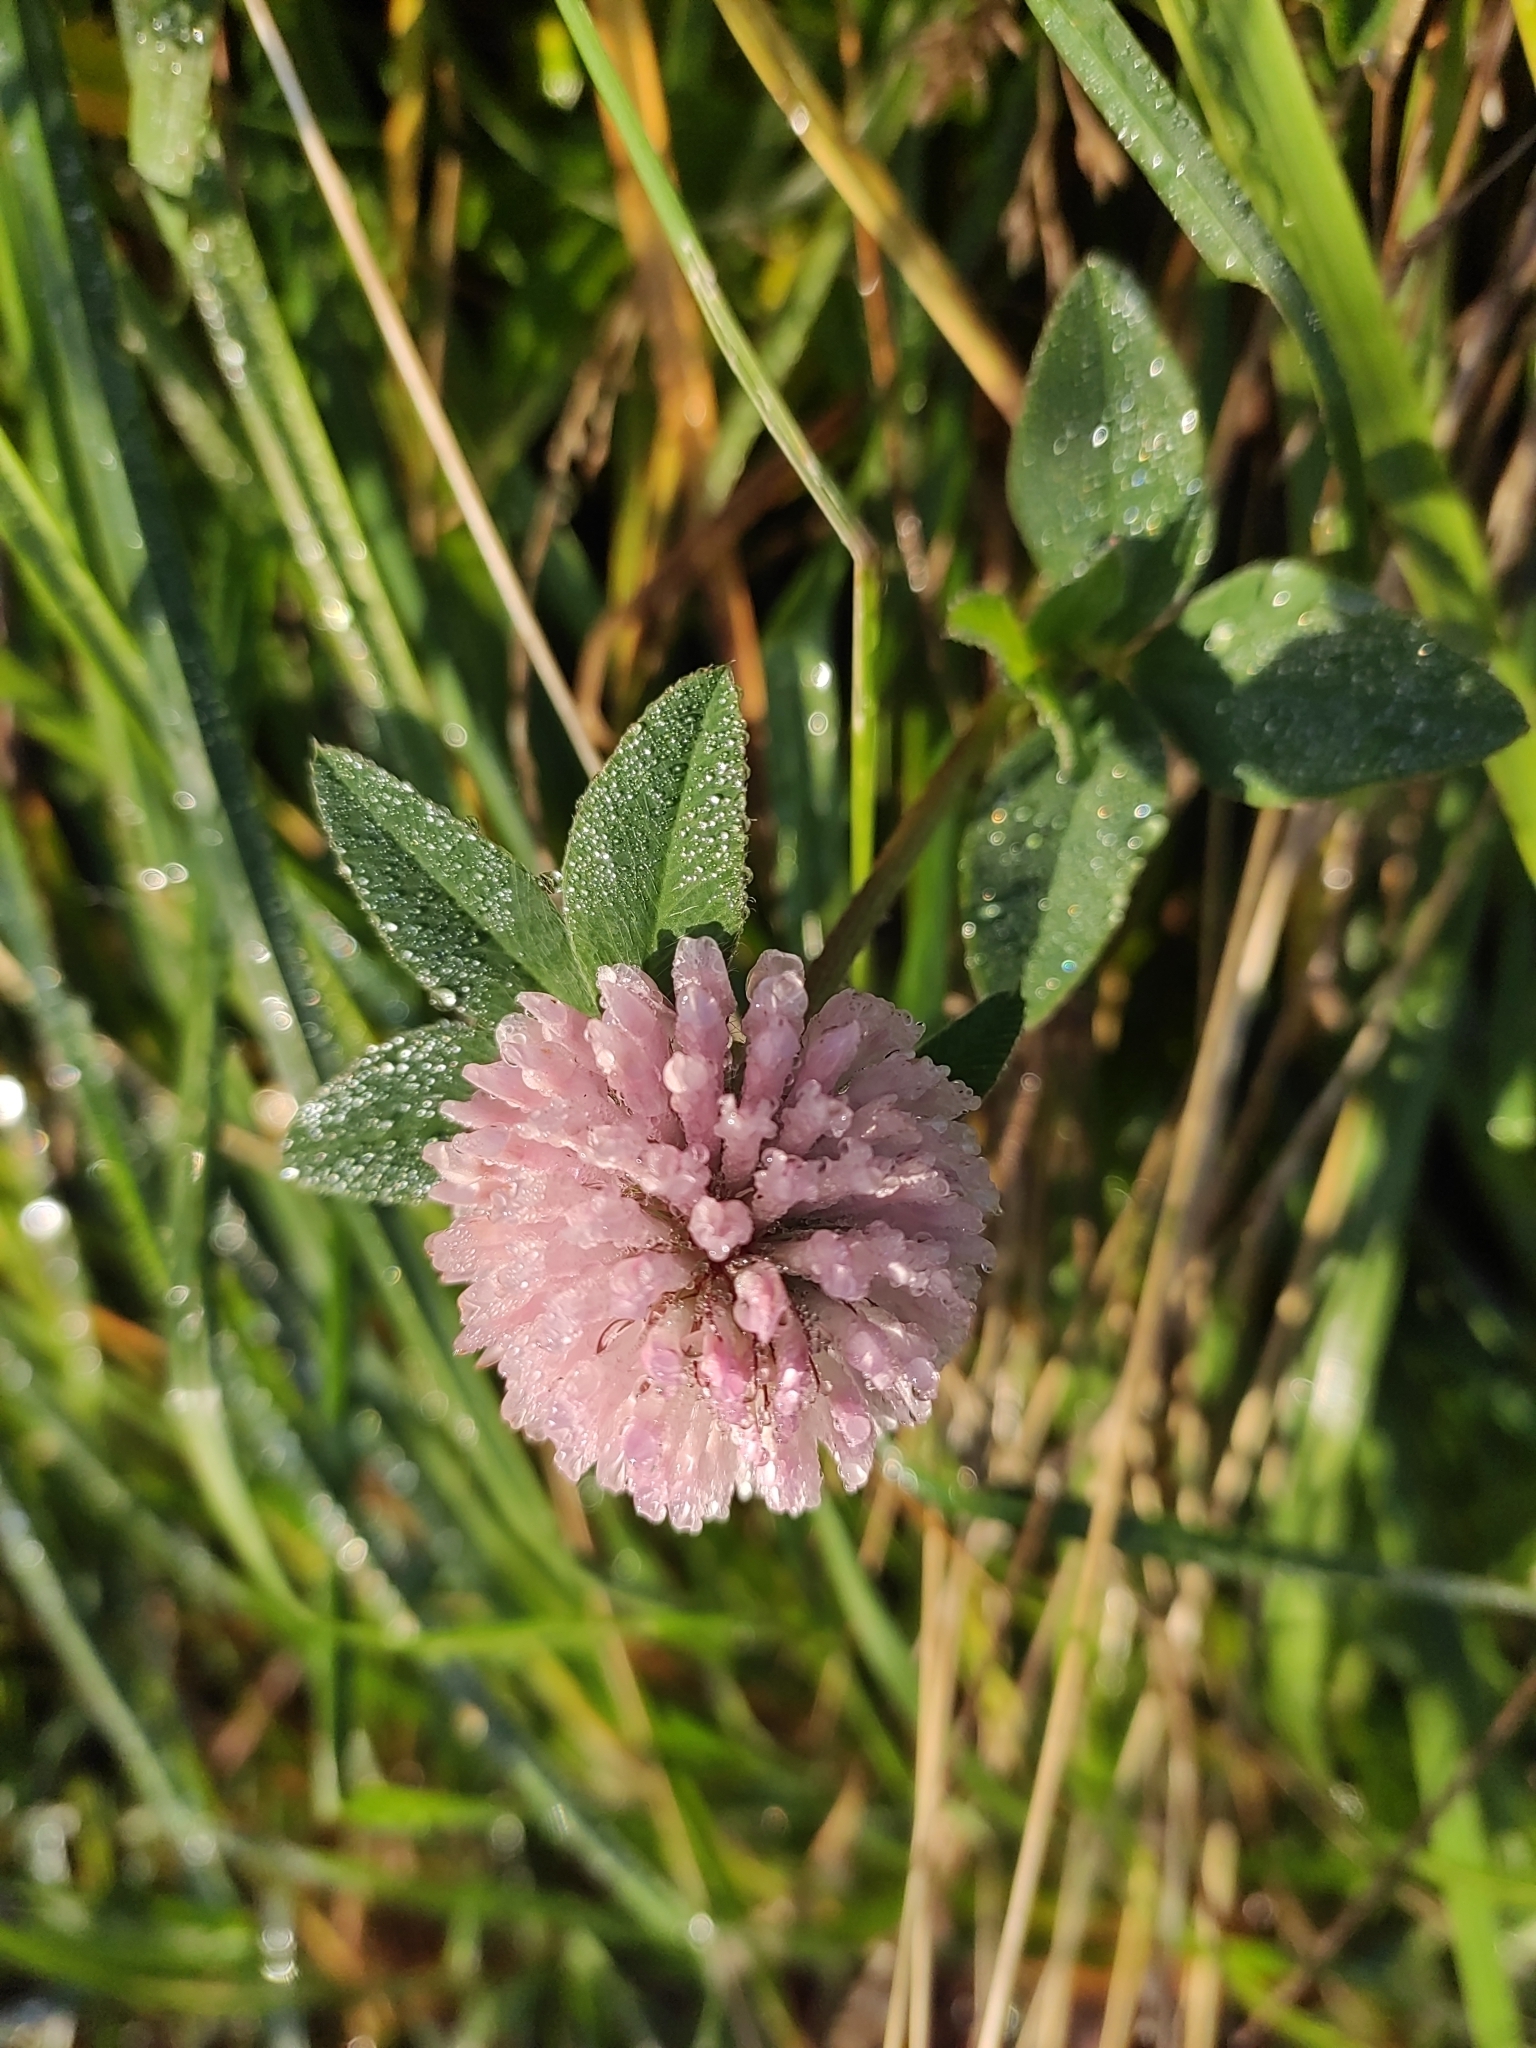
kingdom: Plantae
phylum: Tracheophyta
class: Magnoliopsida
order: Fabales
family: Fabaceae
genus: Trifolium
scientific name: Trifolium pratense
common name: Red clover
